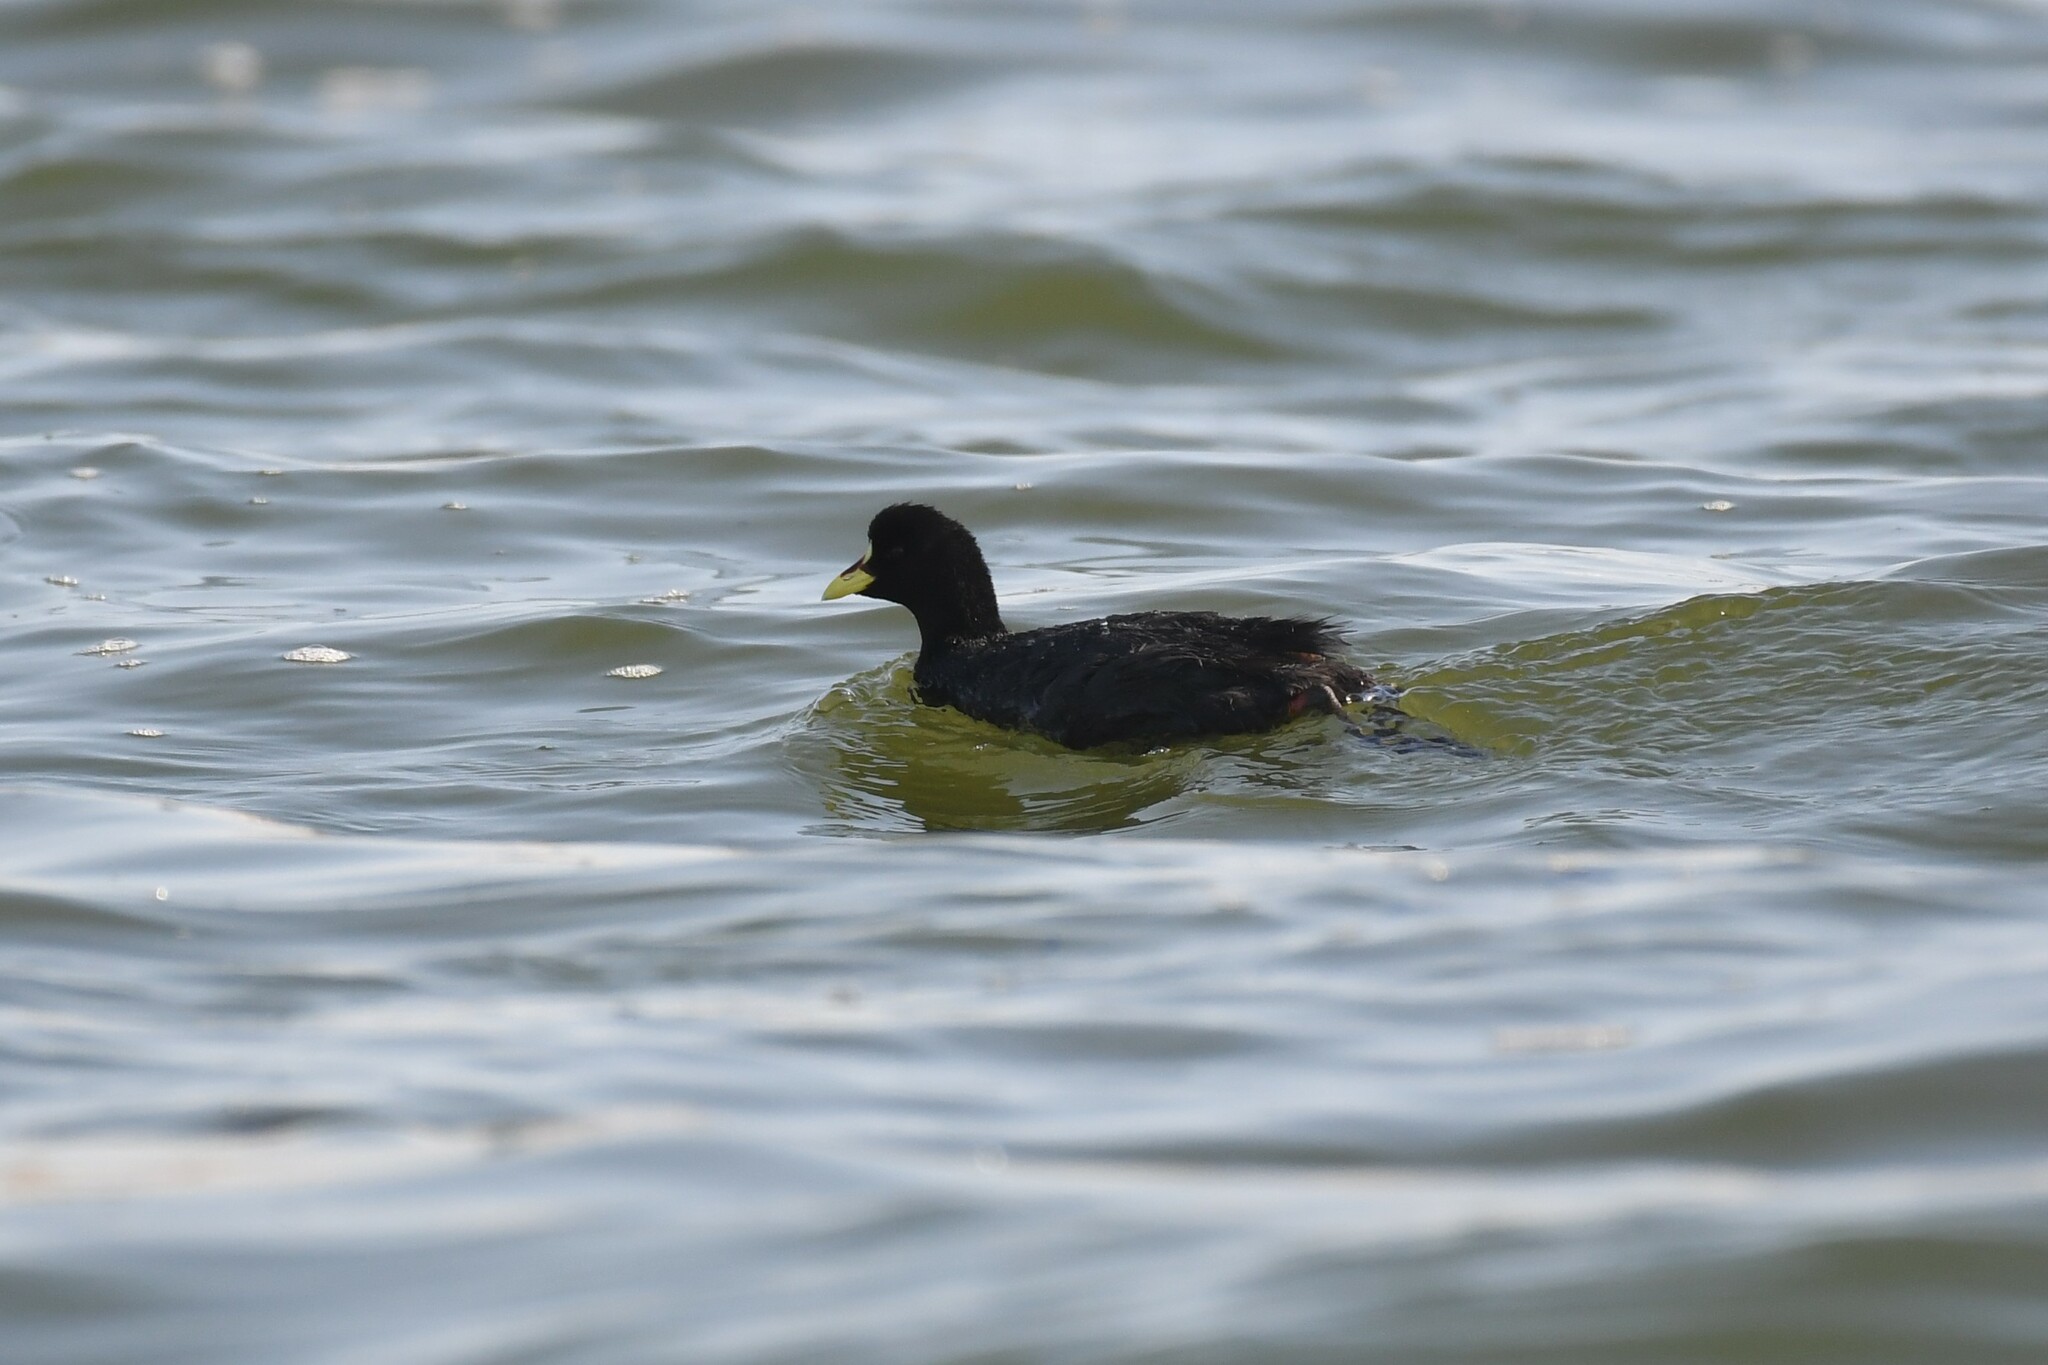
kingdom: Animalia
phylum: Chordata
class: Aves
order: Gruiformes
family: Rallidae
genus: Fulica
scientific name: Fulica armillata
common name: Red-gartered coot
